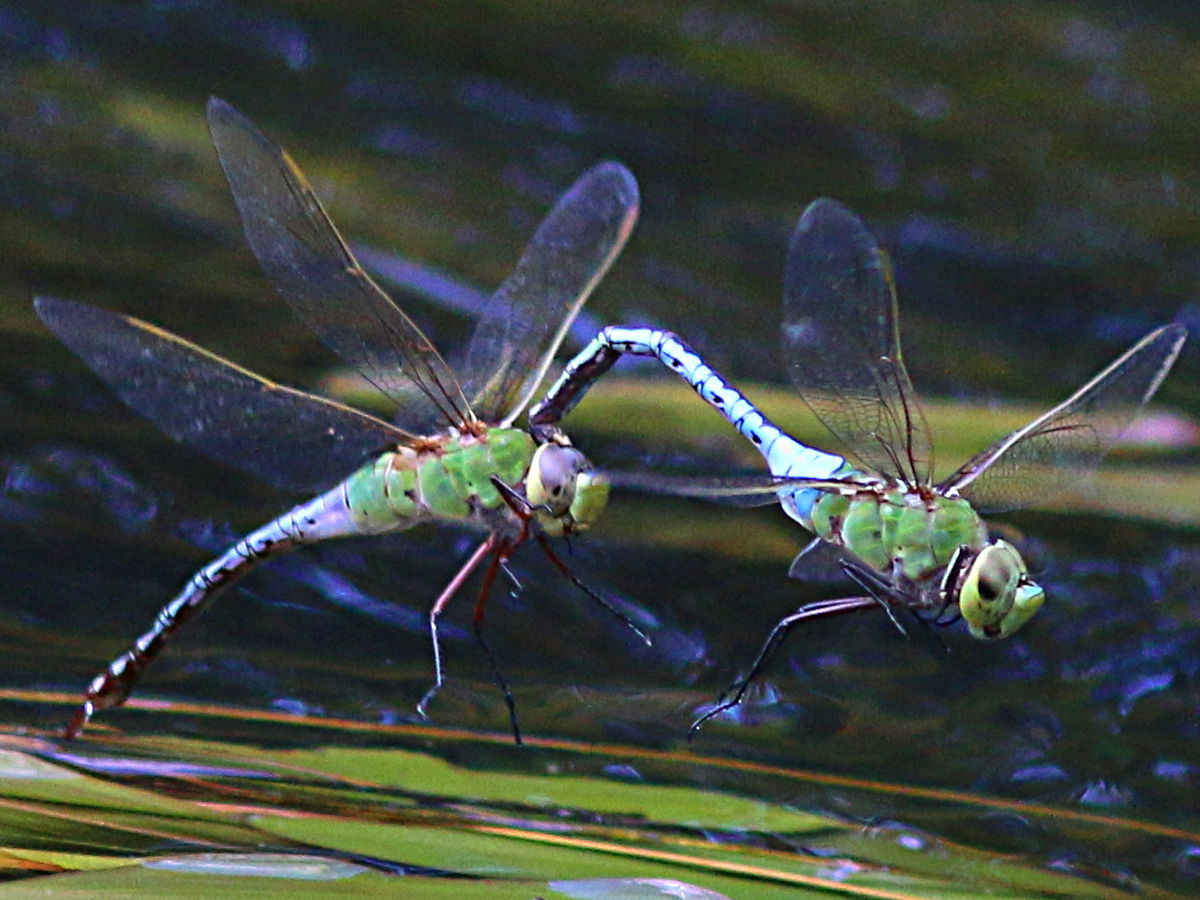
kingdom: Animalia
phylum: Arthropoda
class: Insecta
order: Odonata
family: Aeshnidae
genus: Anax
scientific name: Anax junius
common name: Common green darner
